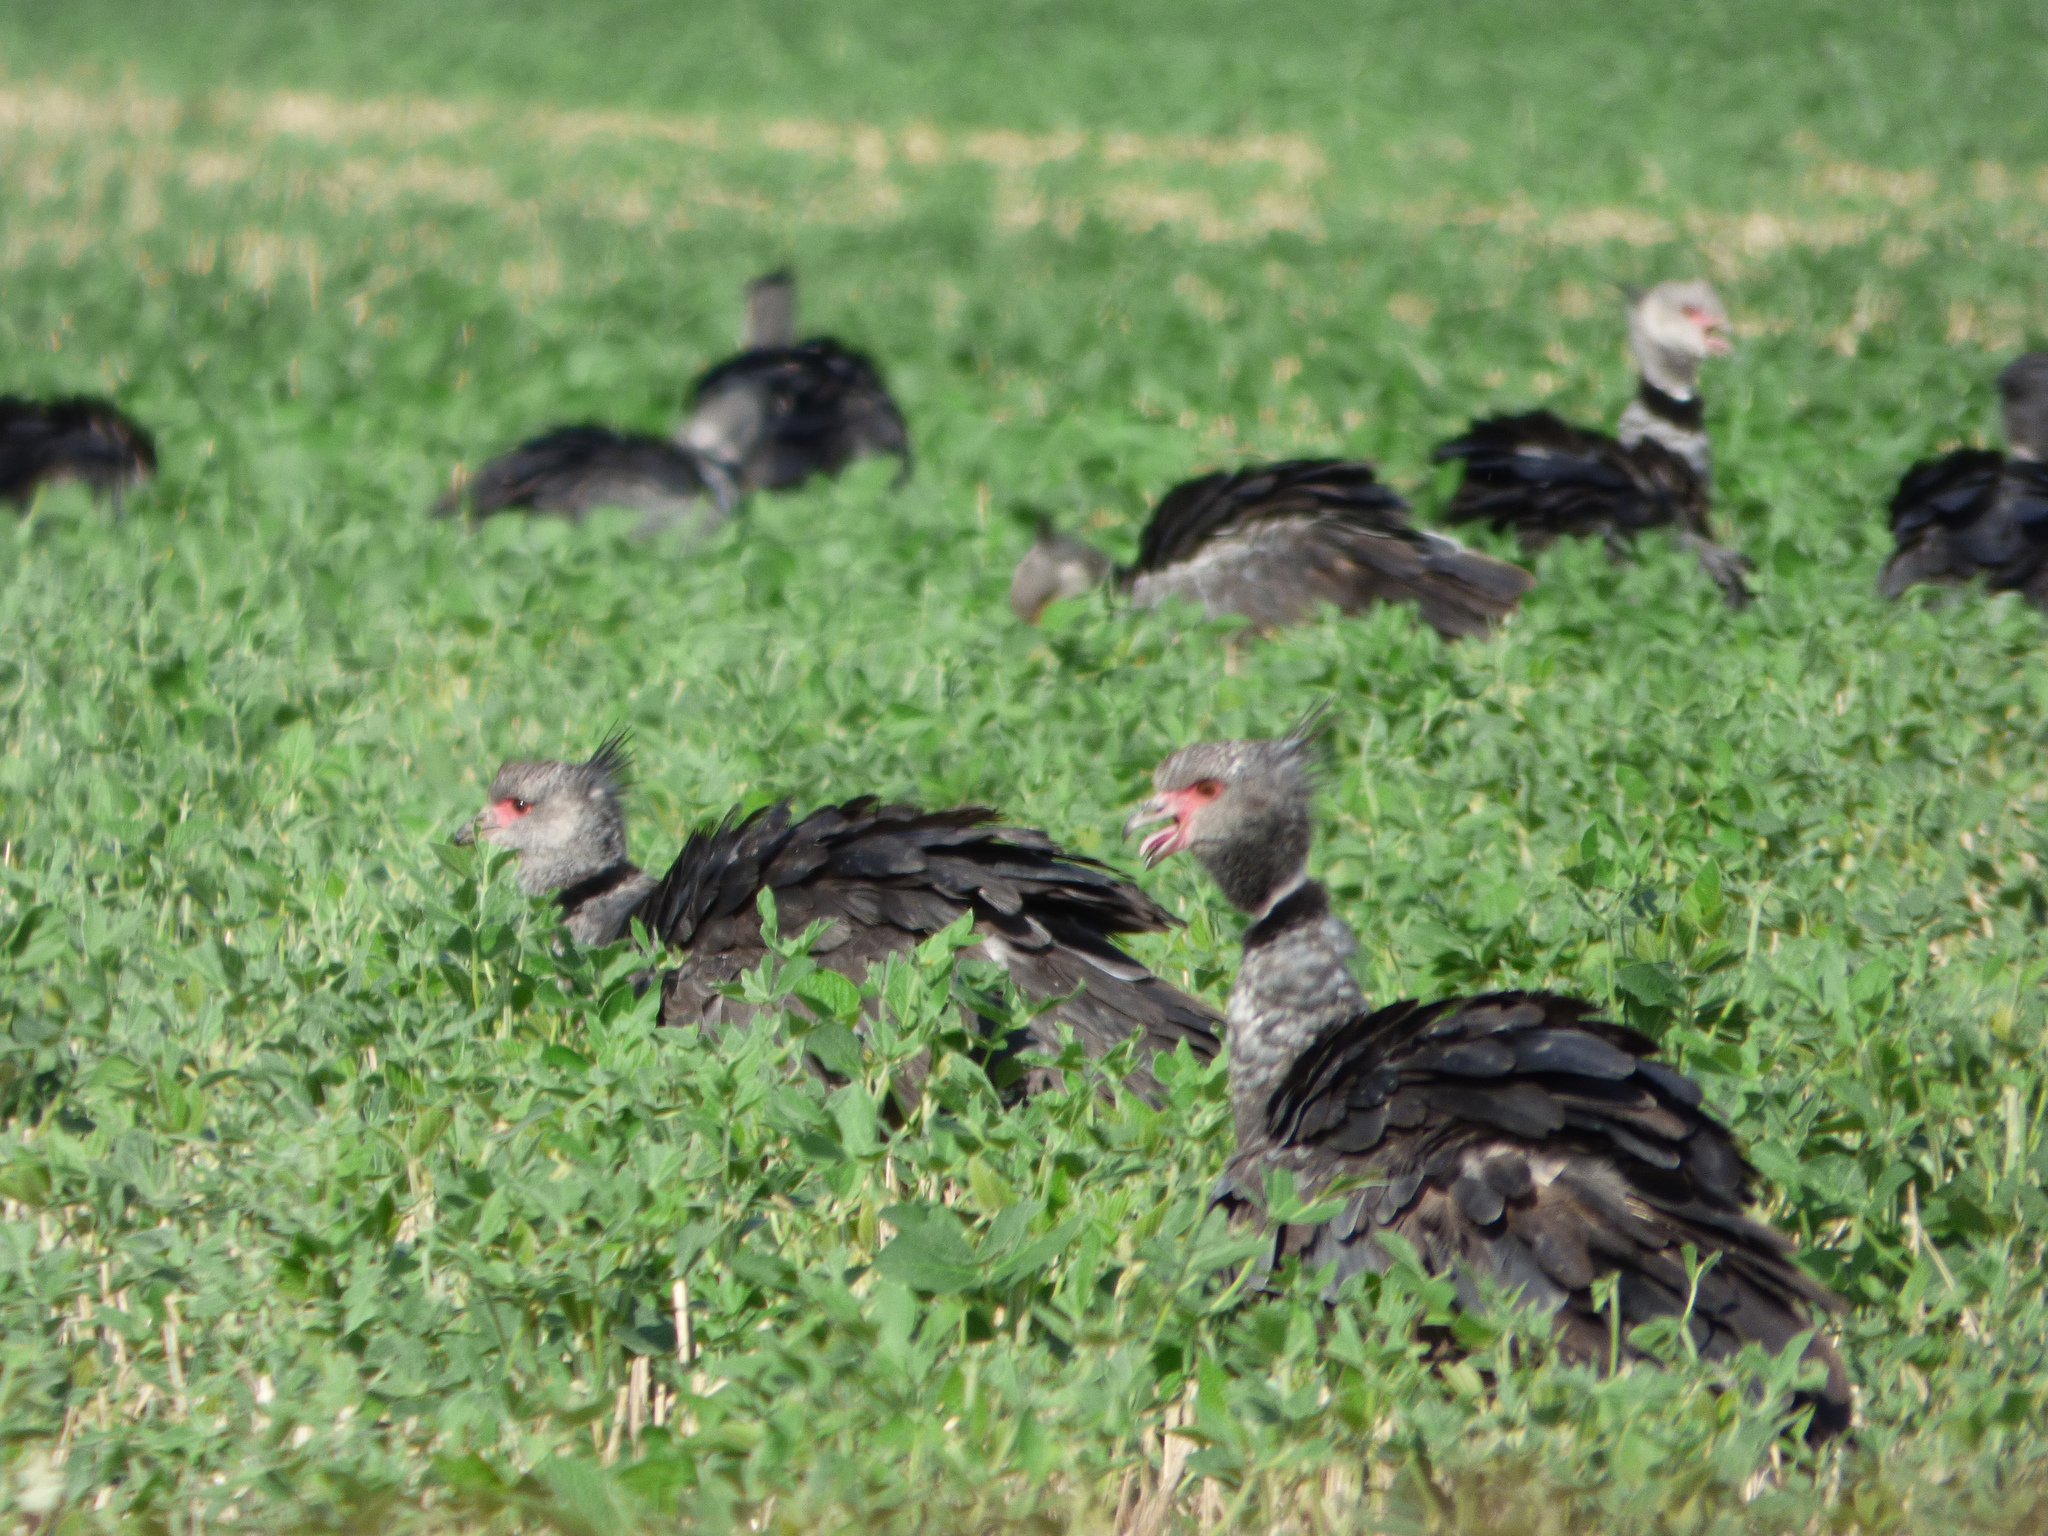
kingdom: Animalia
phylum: Chordata
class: Aves
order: Anseriformes
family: Anhimidae
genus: Chauna
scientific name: Chauna torquata
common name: Southern screamer
